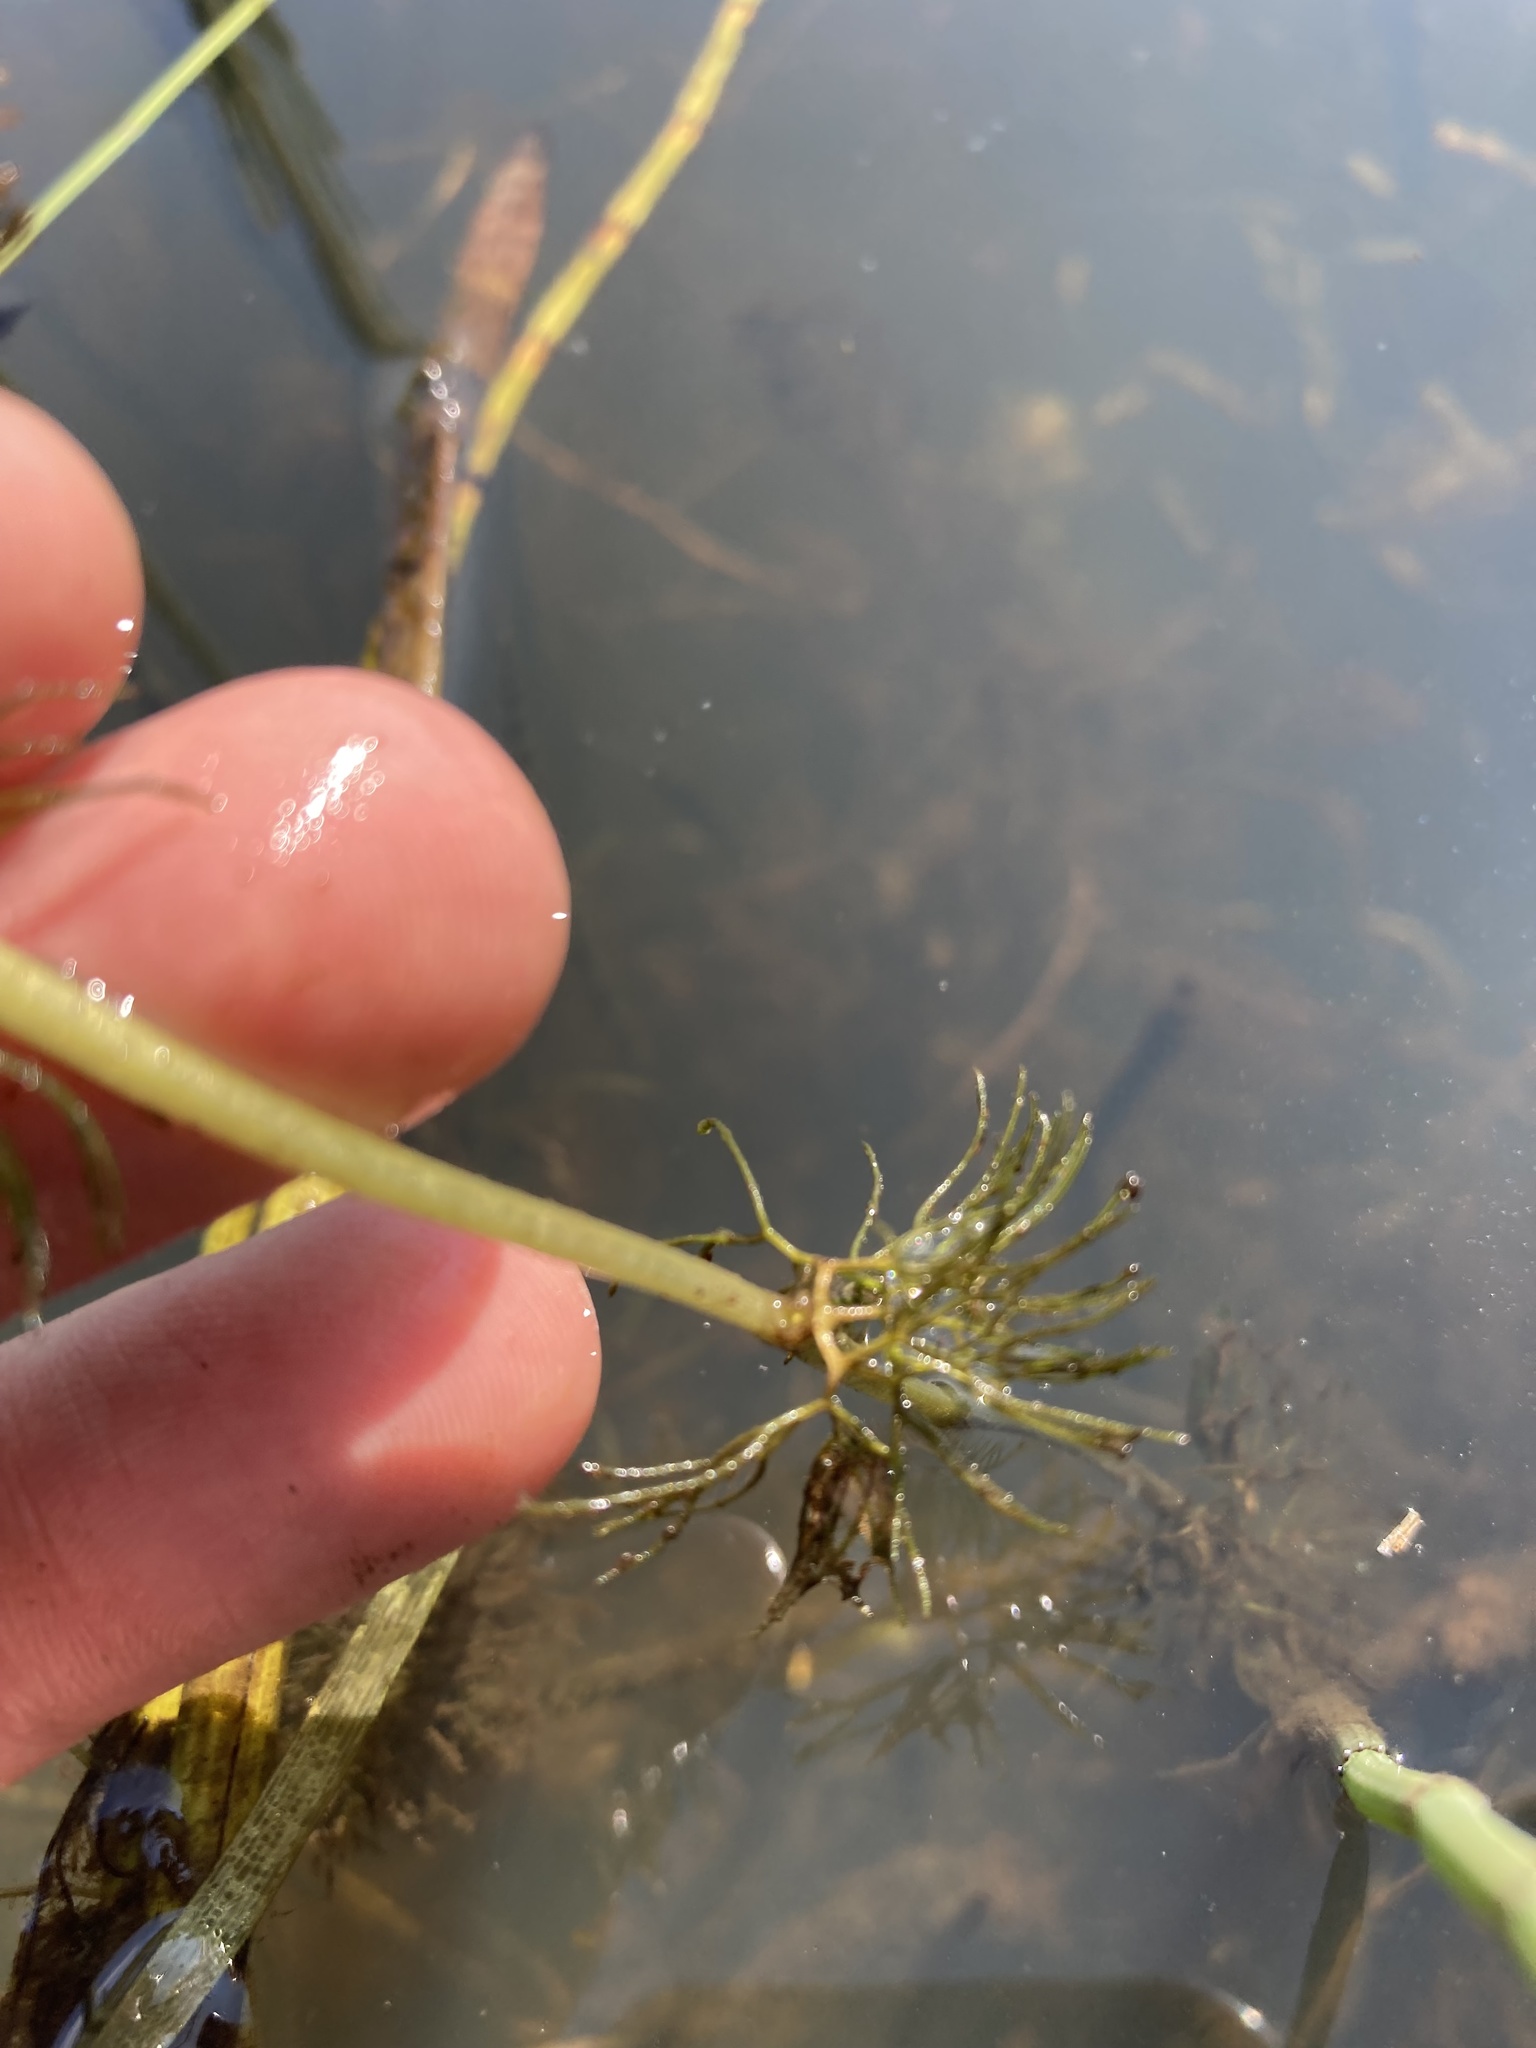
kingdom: Plantae
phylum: Tracheophyta
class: Magnoliopsida
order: Ranunculales
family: Ranunculaceae
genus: Ranunculus
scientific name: Ranunculus longirostris
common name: Curly white water-crowfoot
